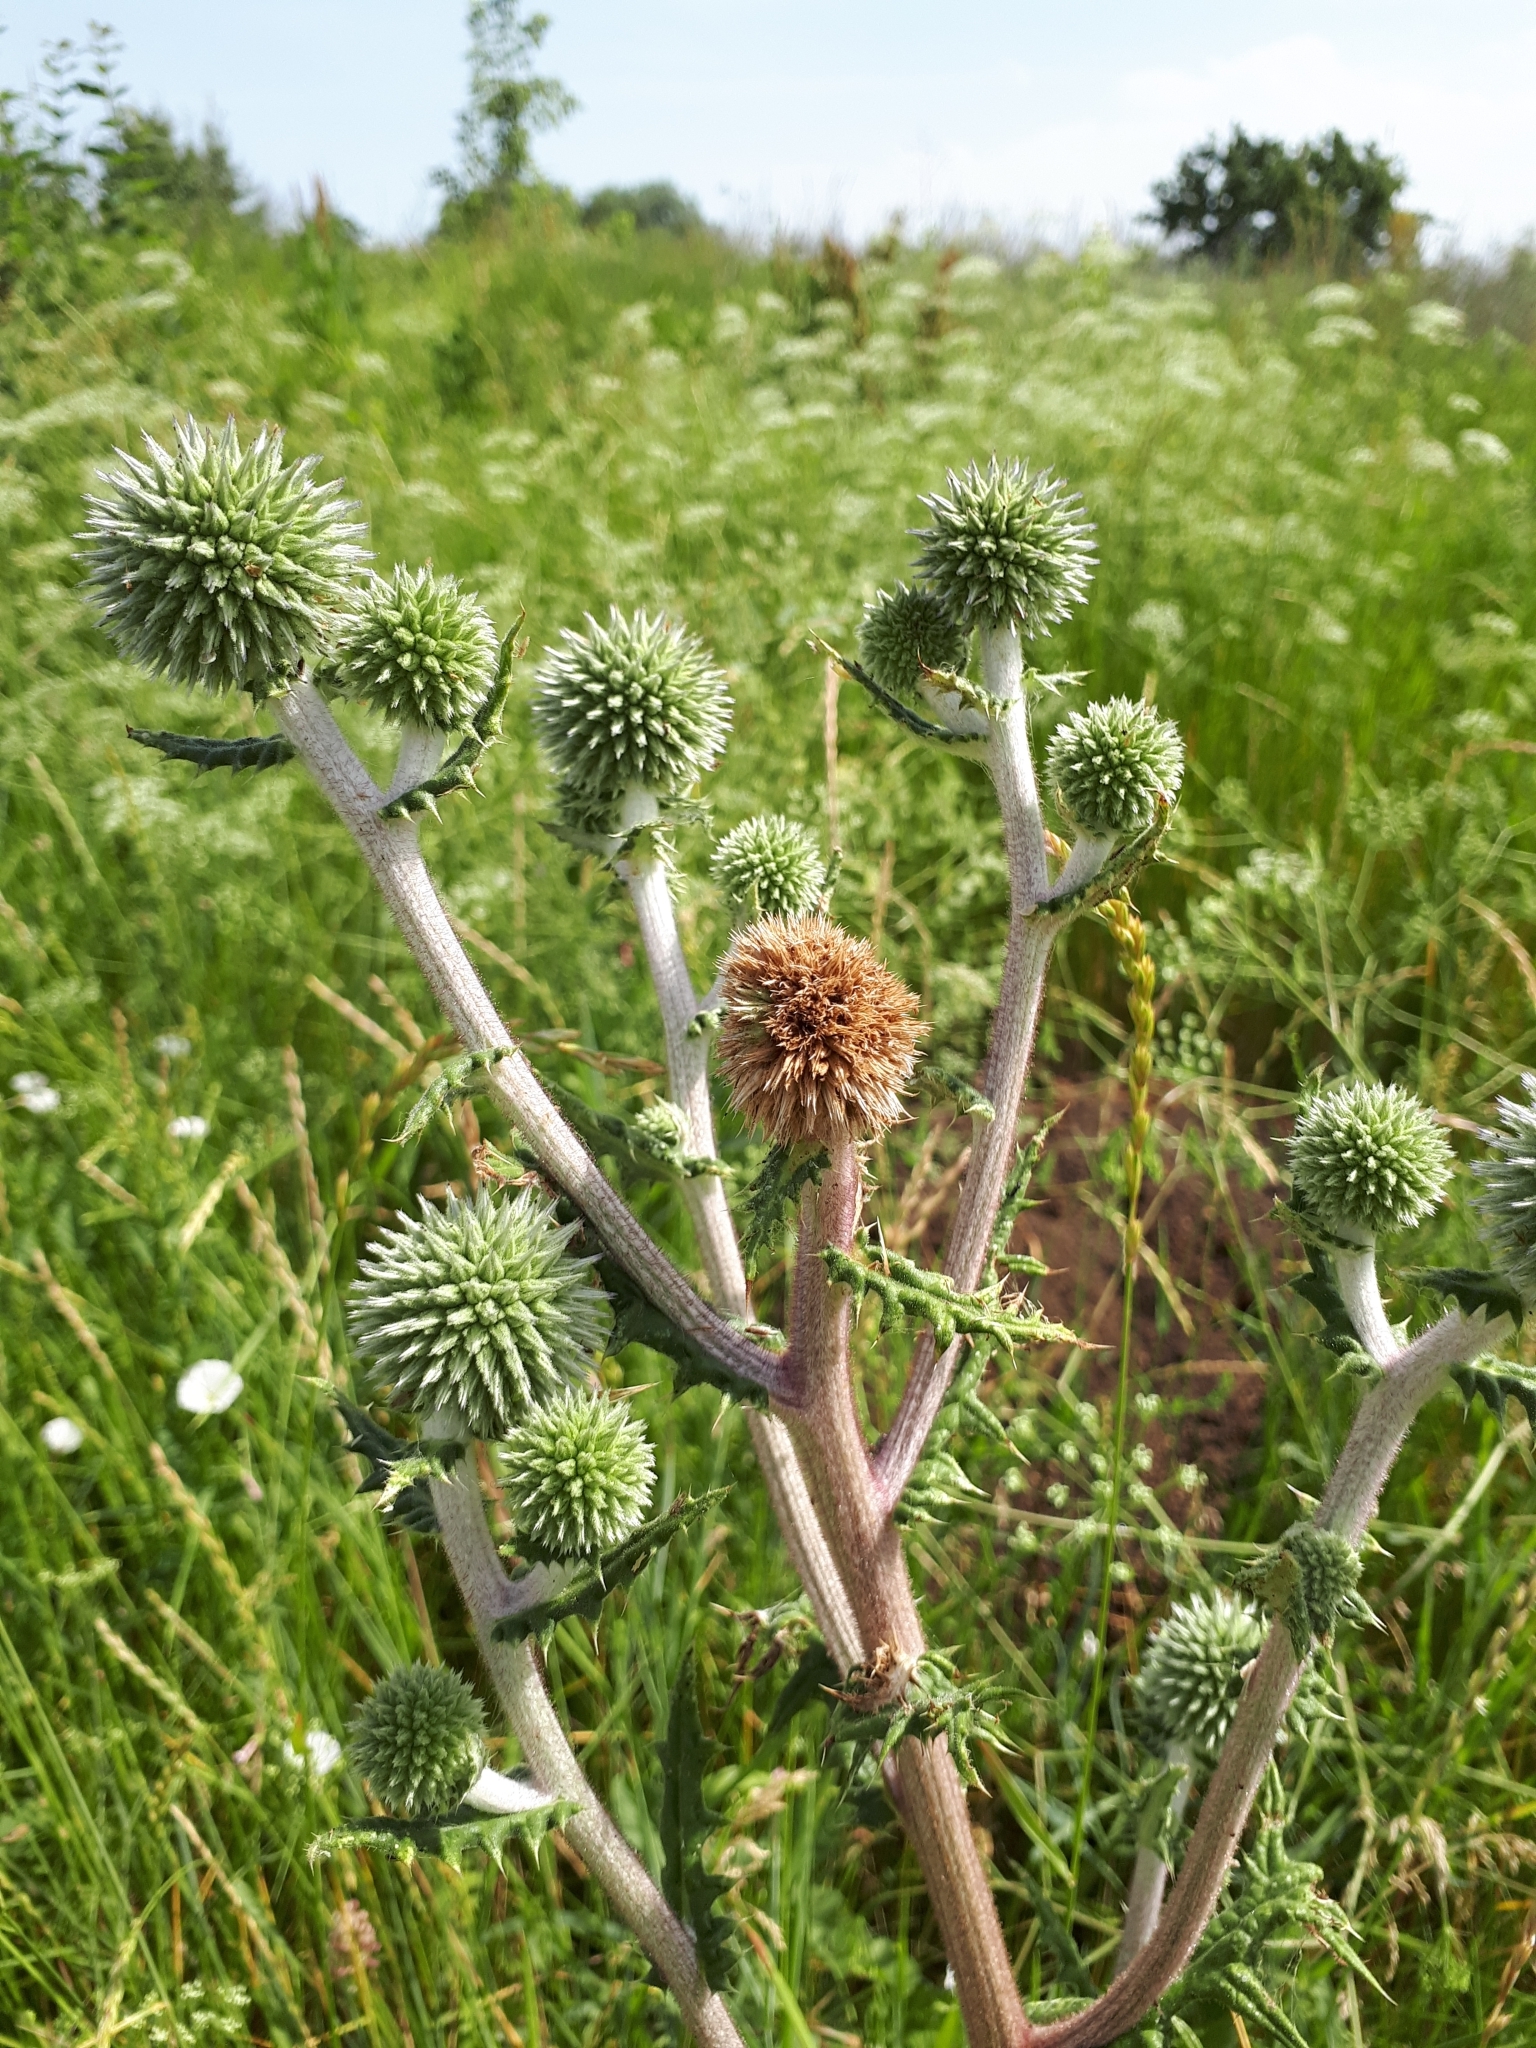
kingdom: Plantae
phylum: Tracheophyta
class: Magnoliopsida
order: Asterales
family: Asteraceae
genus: Echinops
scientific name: Echinops sphaerocephalus
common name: Glandular globe-thistle
